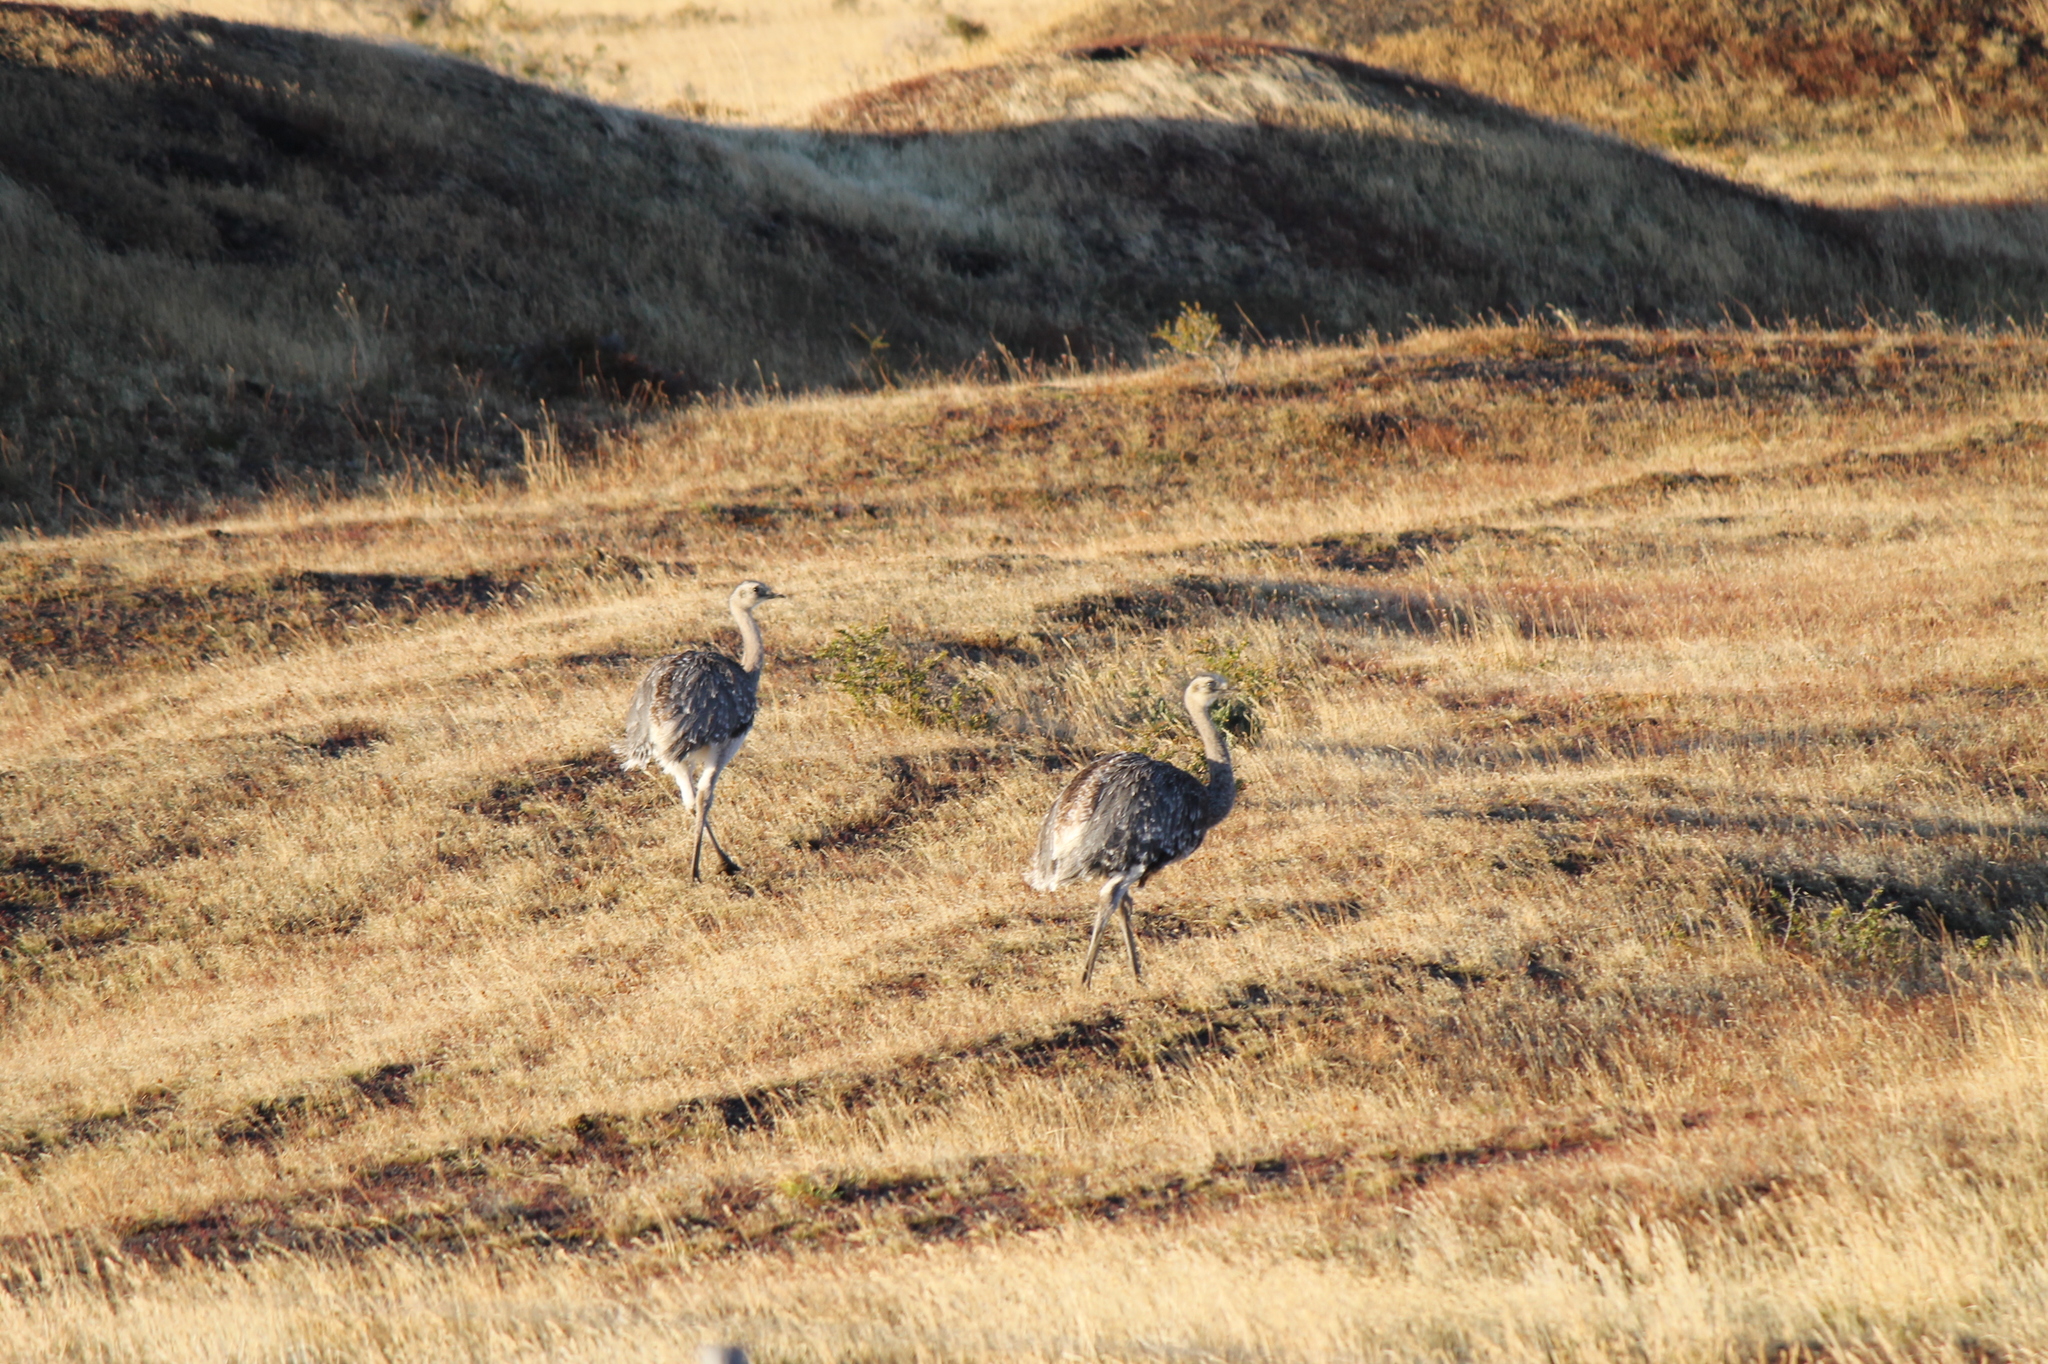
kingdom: Animalia
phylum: Chordata
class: Aves
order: Rheiformes
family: Rheidae
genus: Rhea
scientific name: Rhea pennata
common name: Lesser rhea
